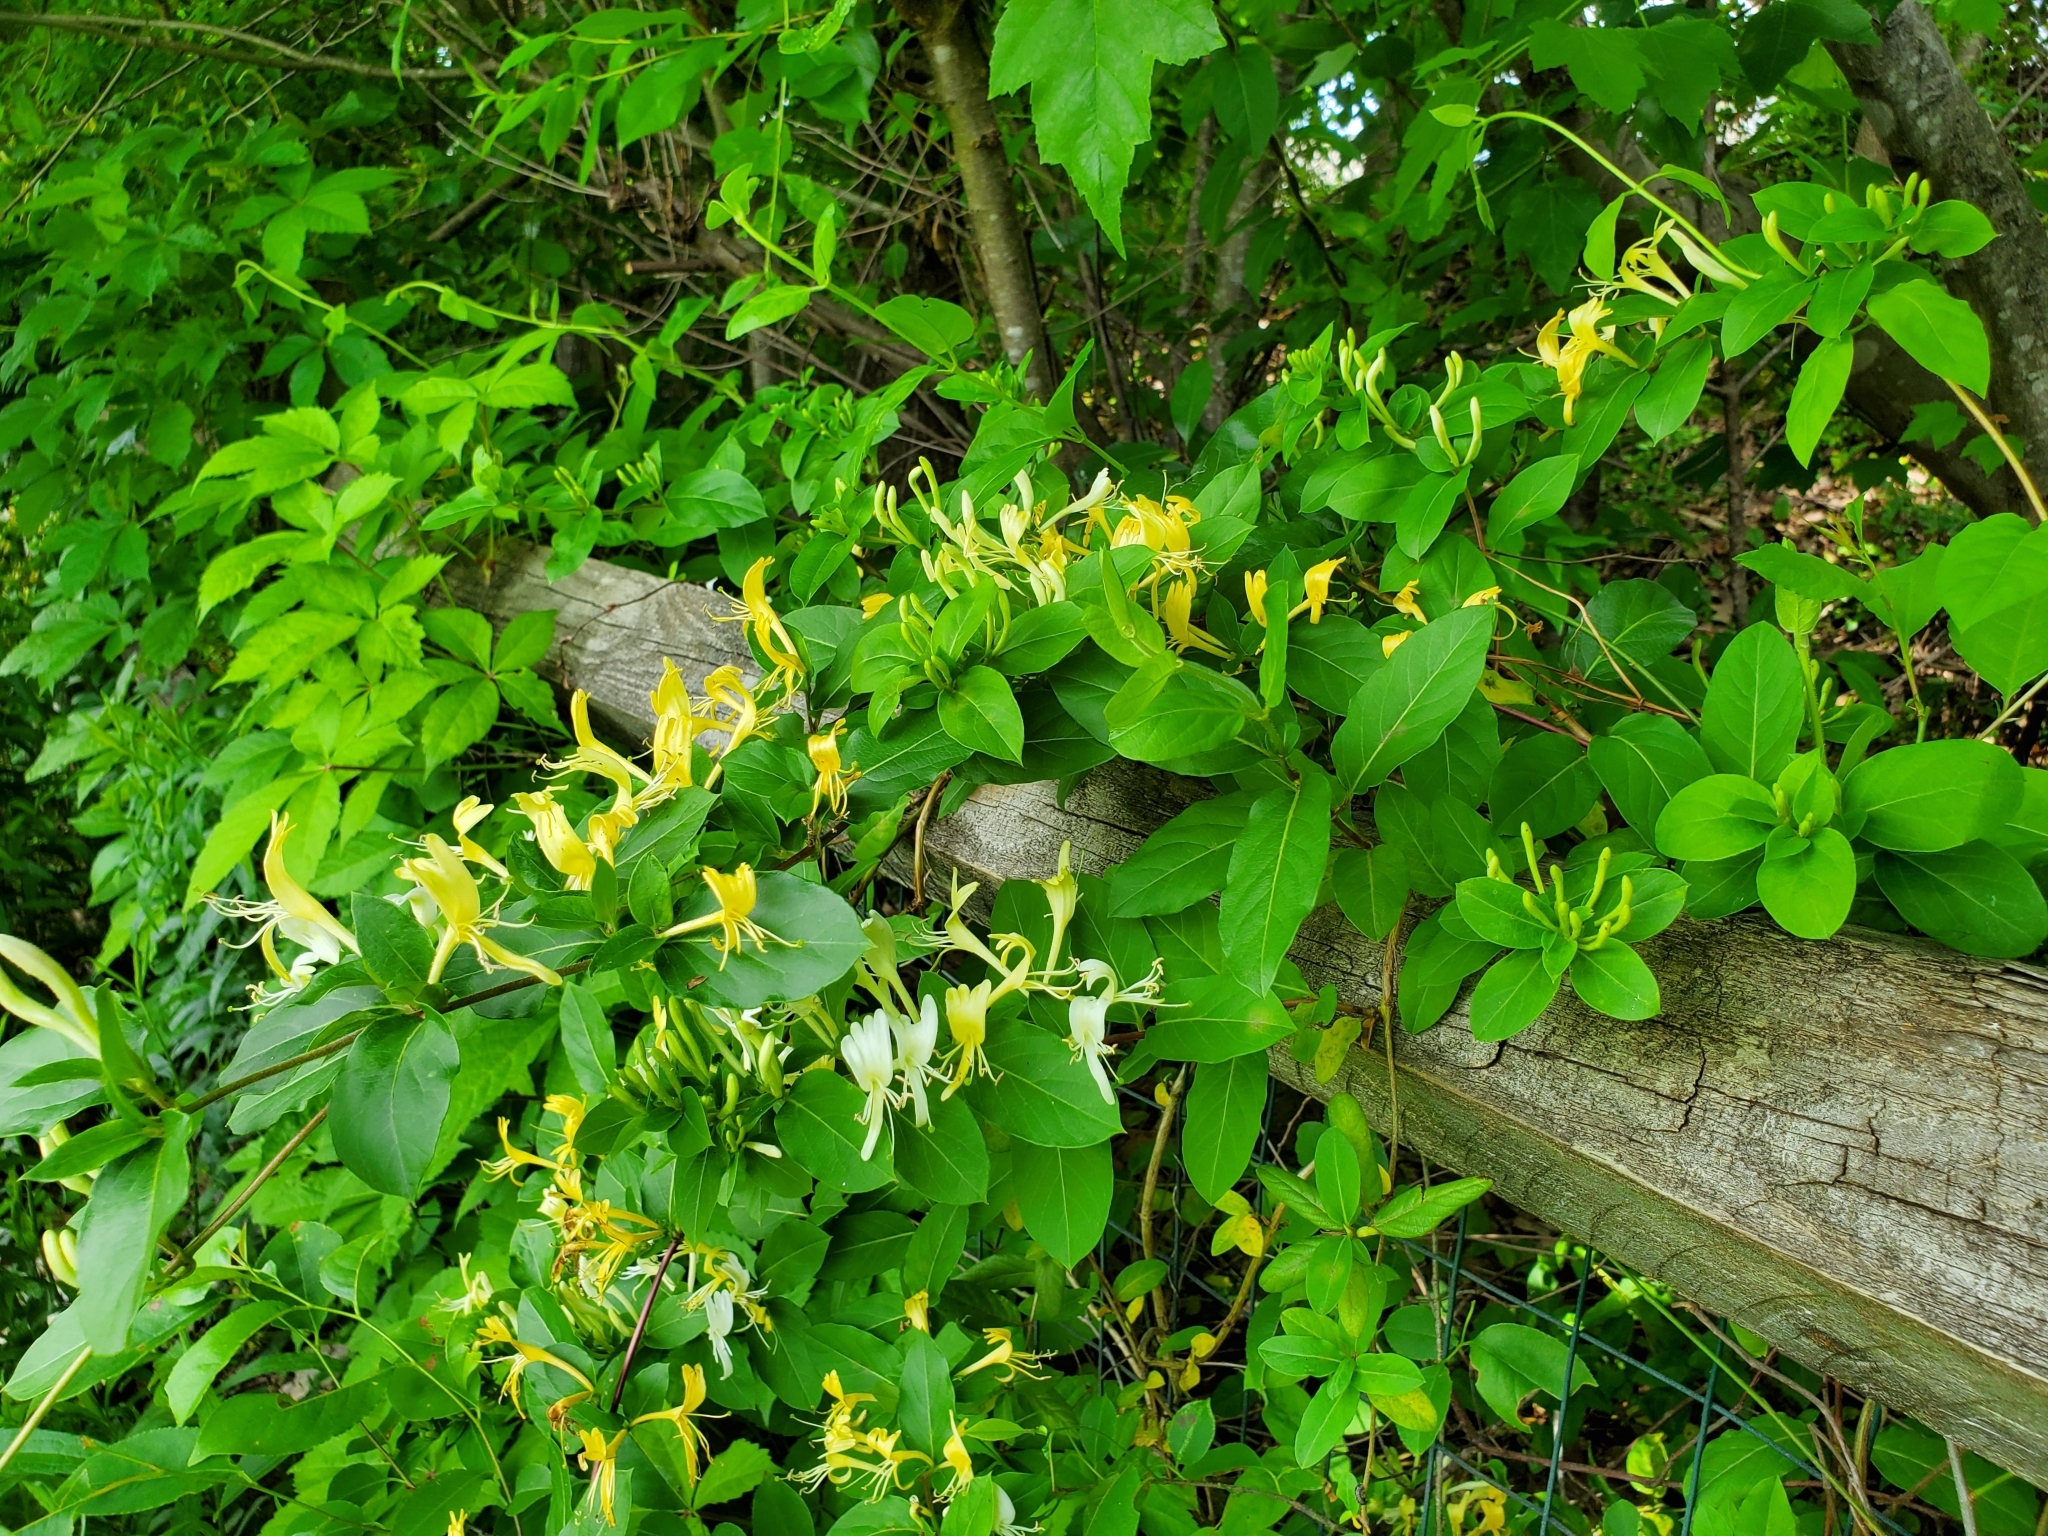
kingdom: Plantae
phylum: Tracheophyta
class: Magnoliopsida
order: Dipsacales
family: Caprifoliaceae
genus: Lonicera
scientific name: Lonicera japonica
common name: Japanese honeysuckle
